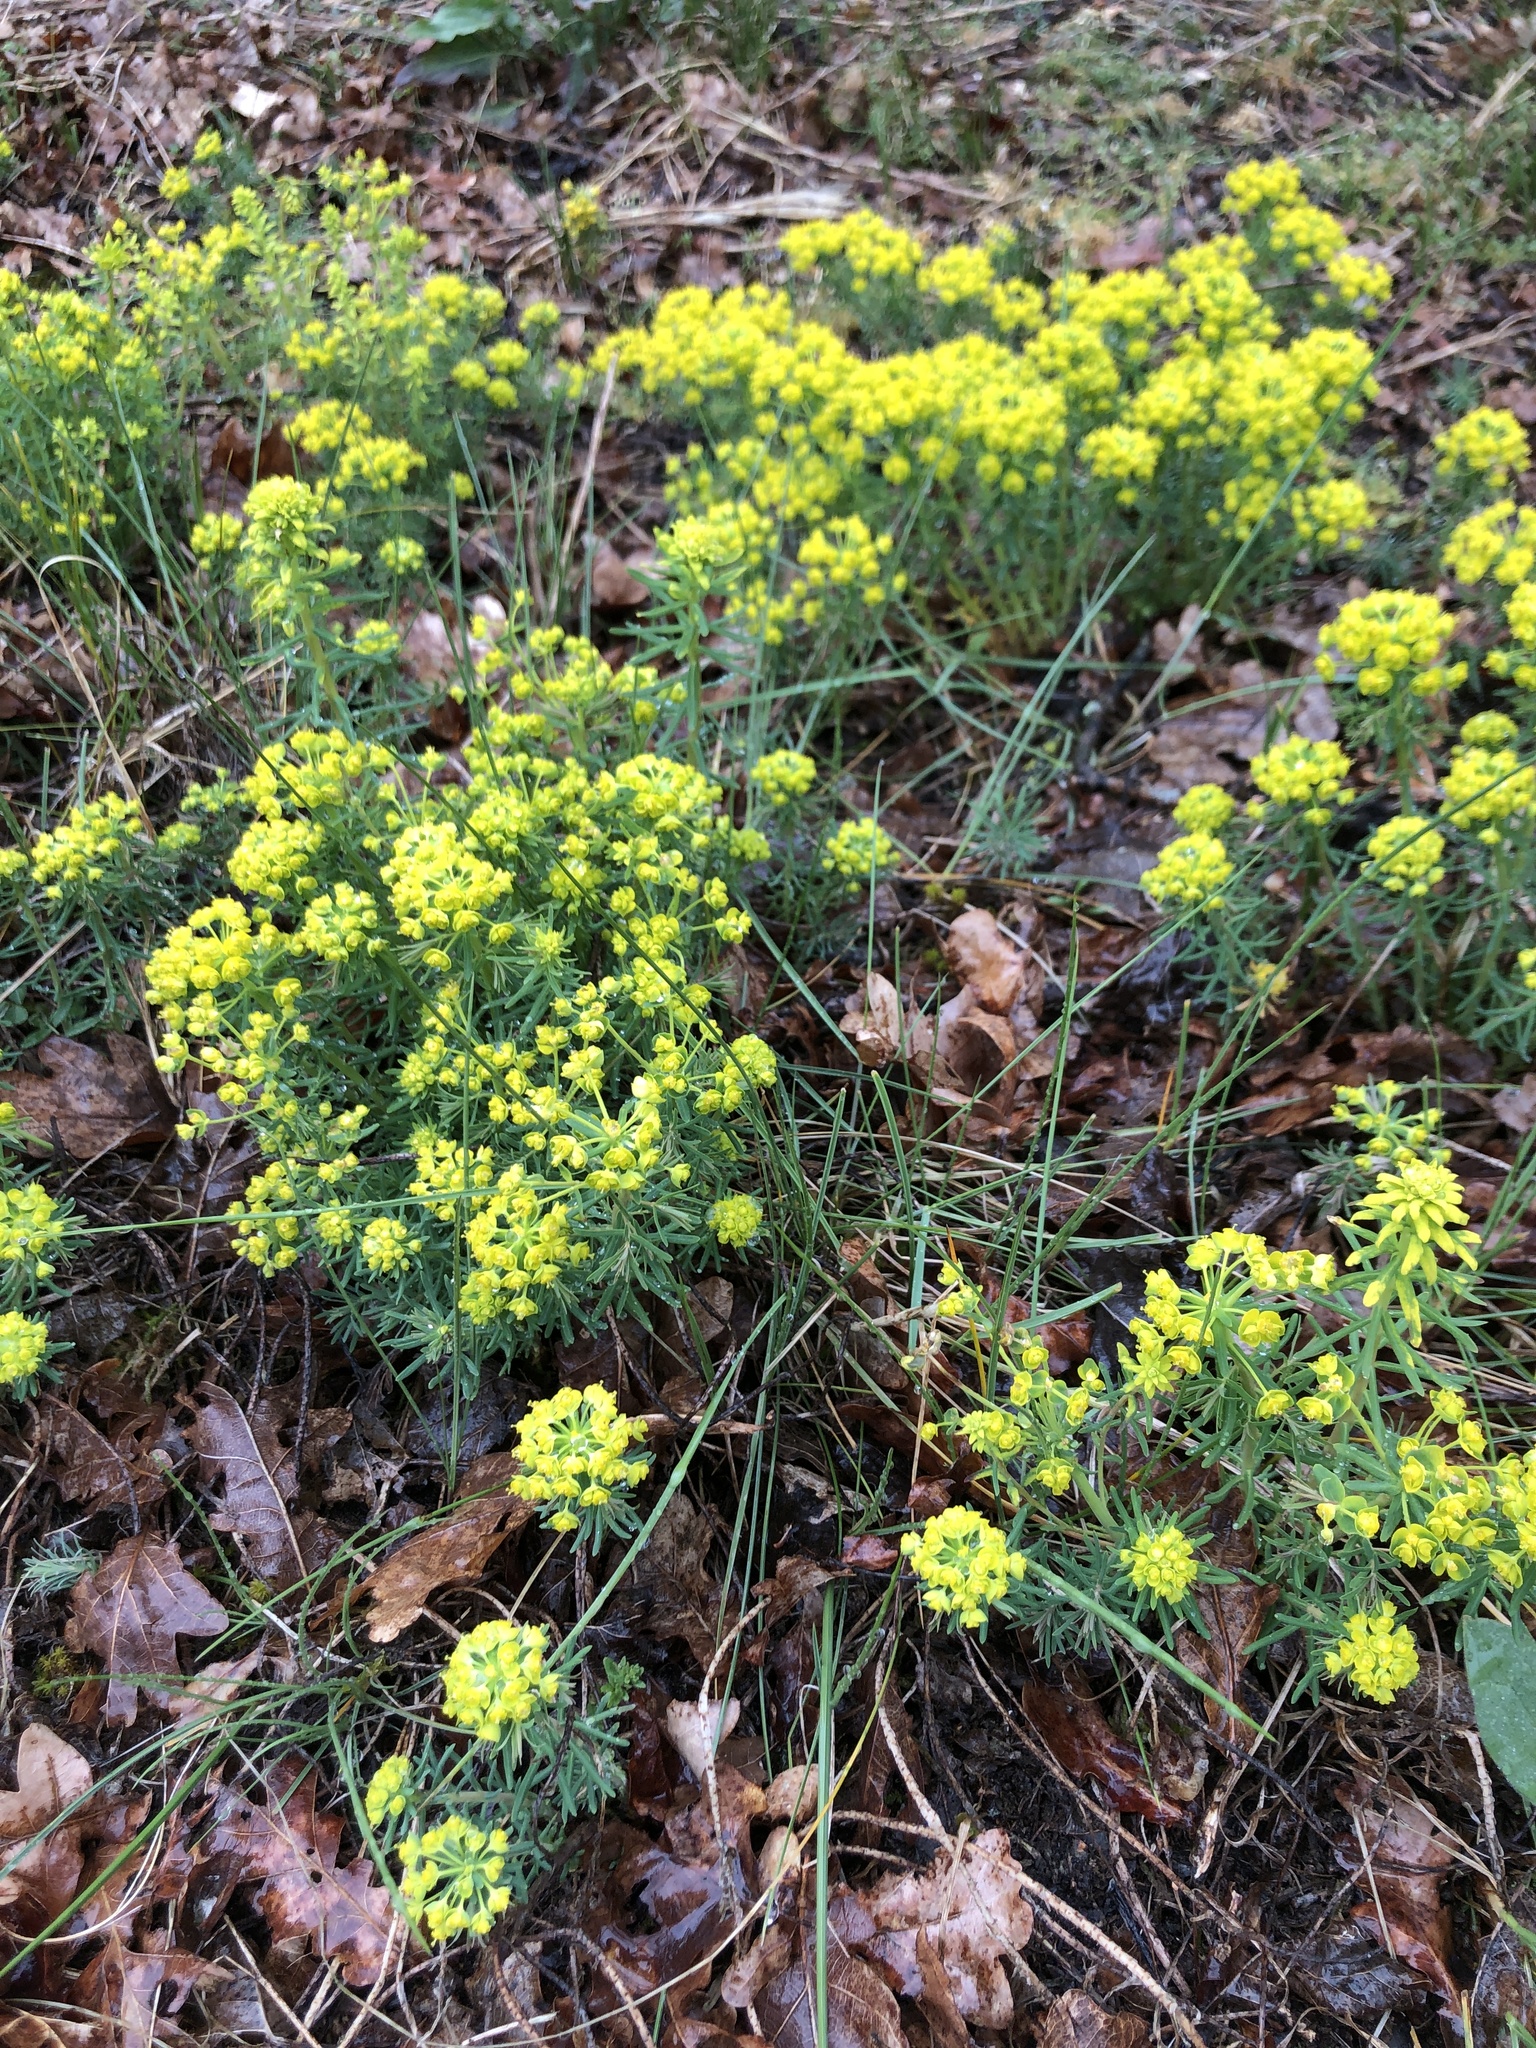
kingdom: Plantae
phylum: Tracheophyta
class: Magnoliopsida
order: Malpighiales
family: Euphorbiaceae
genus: Euphorbia
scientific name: Euphorbia cyparissias
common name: Cypress spurge
